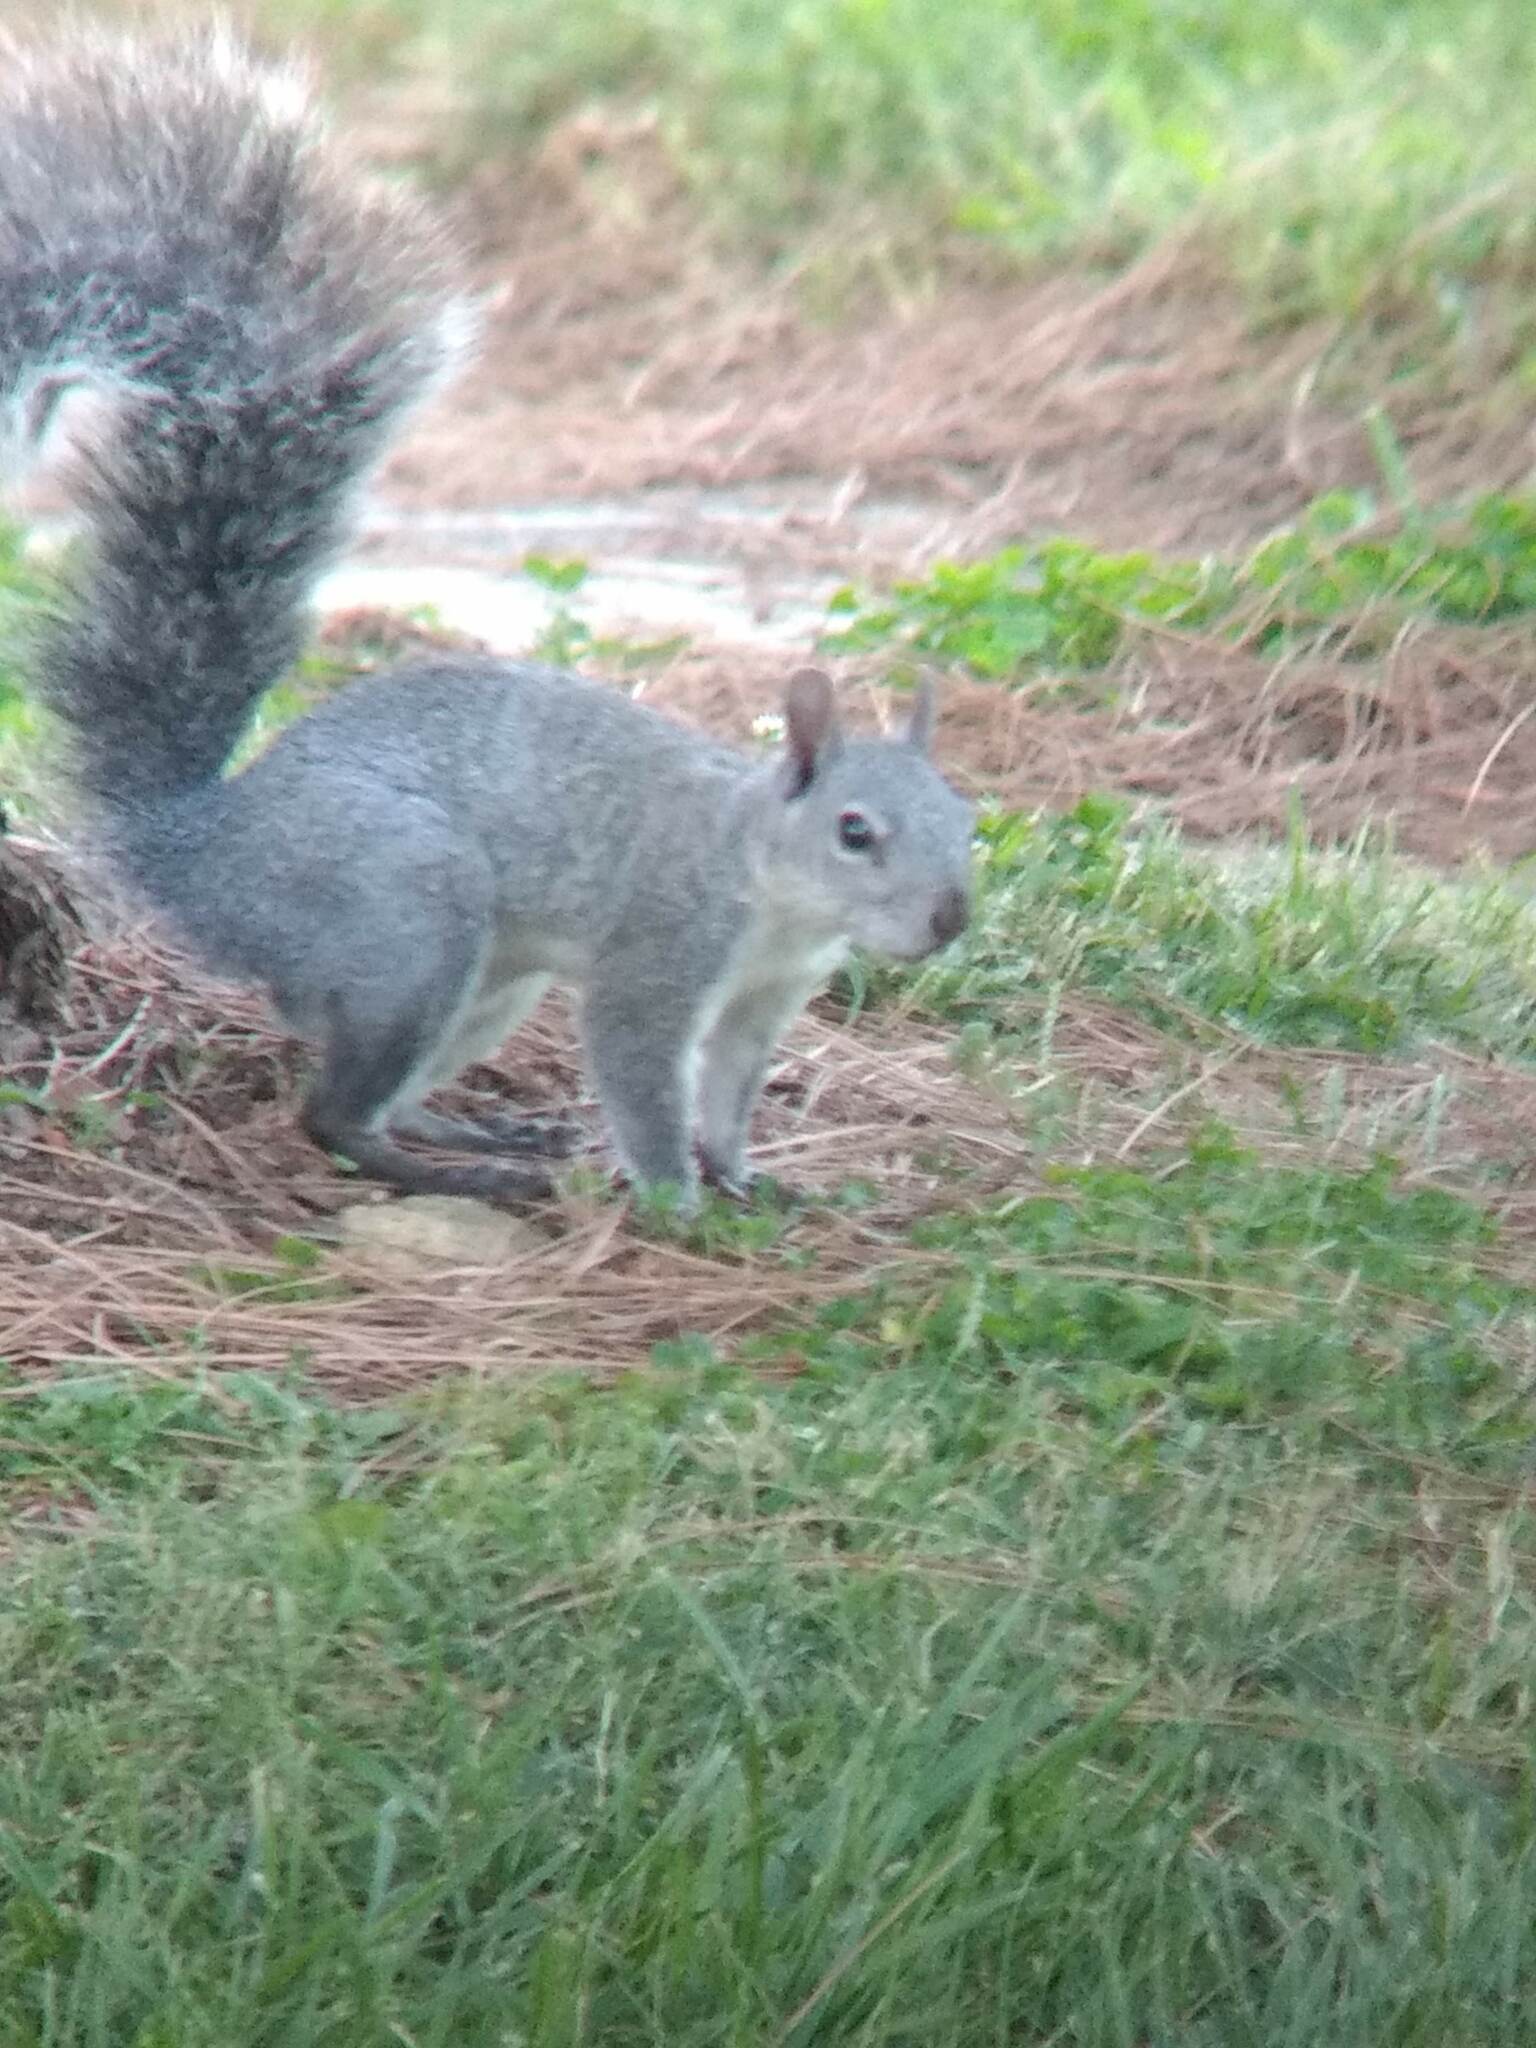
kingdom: Animalia
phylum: Chordata
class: Mammalia
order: Rodentia
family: Sciuridae
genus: Sciurus
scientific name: Sciurus griseus
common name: Western gray squirrel
